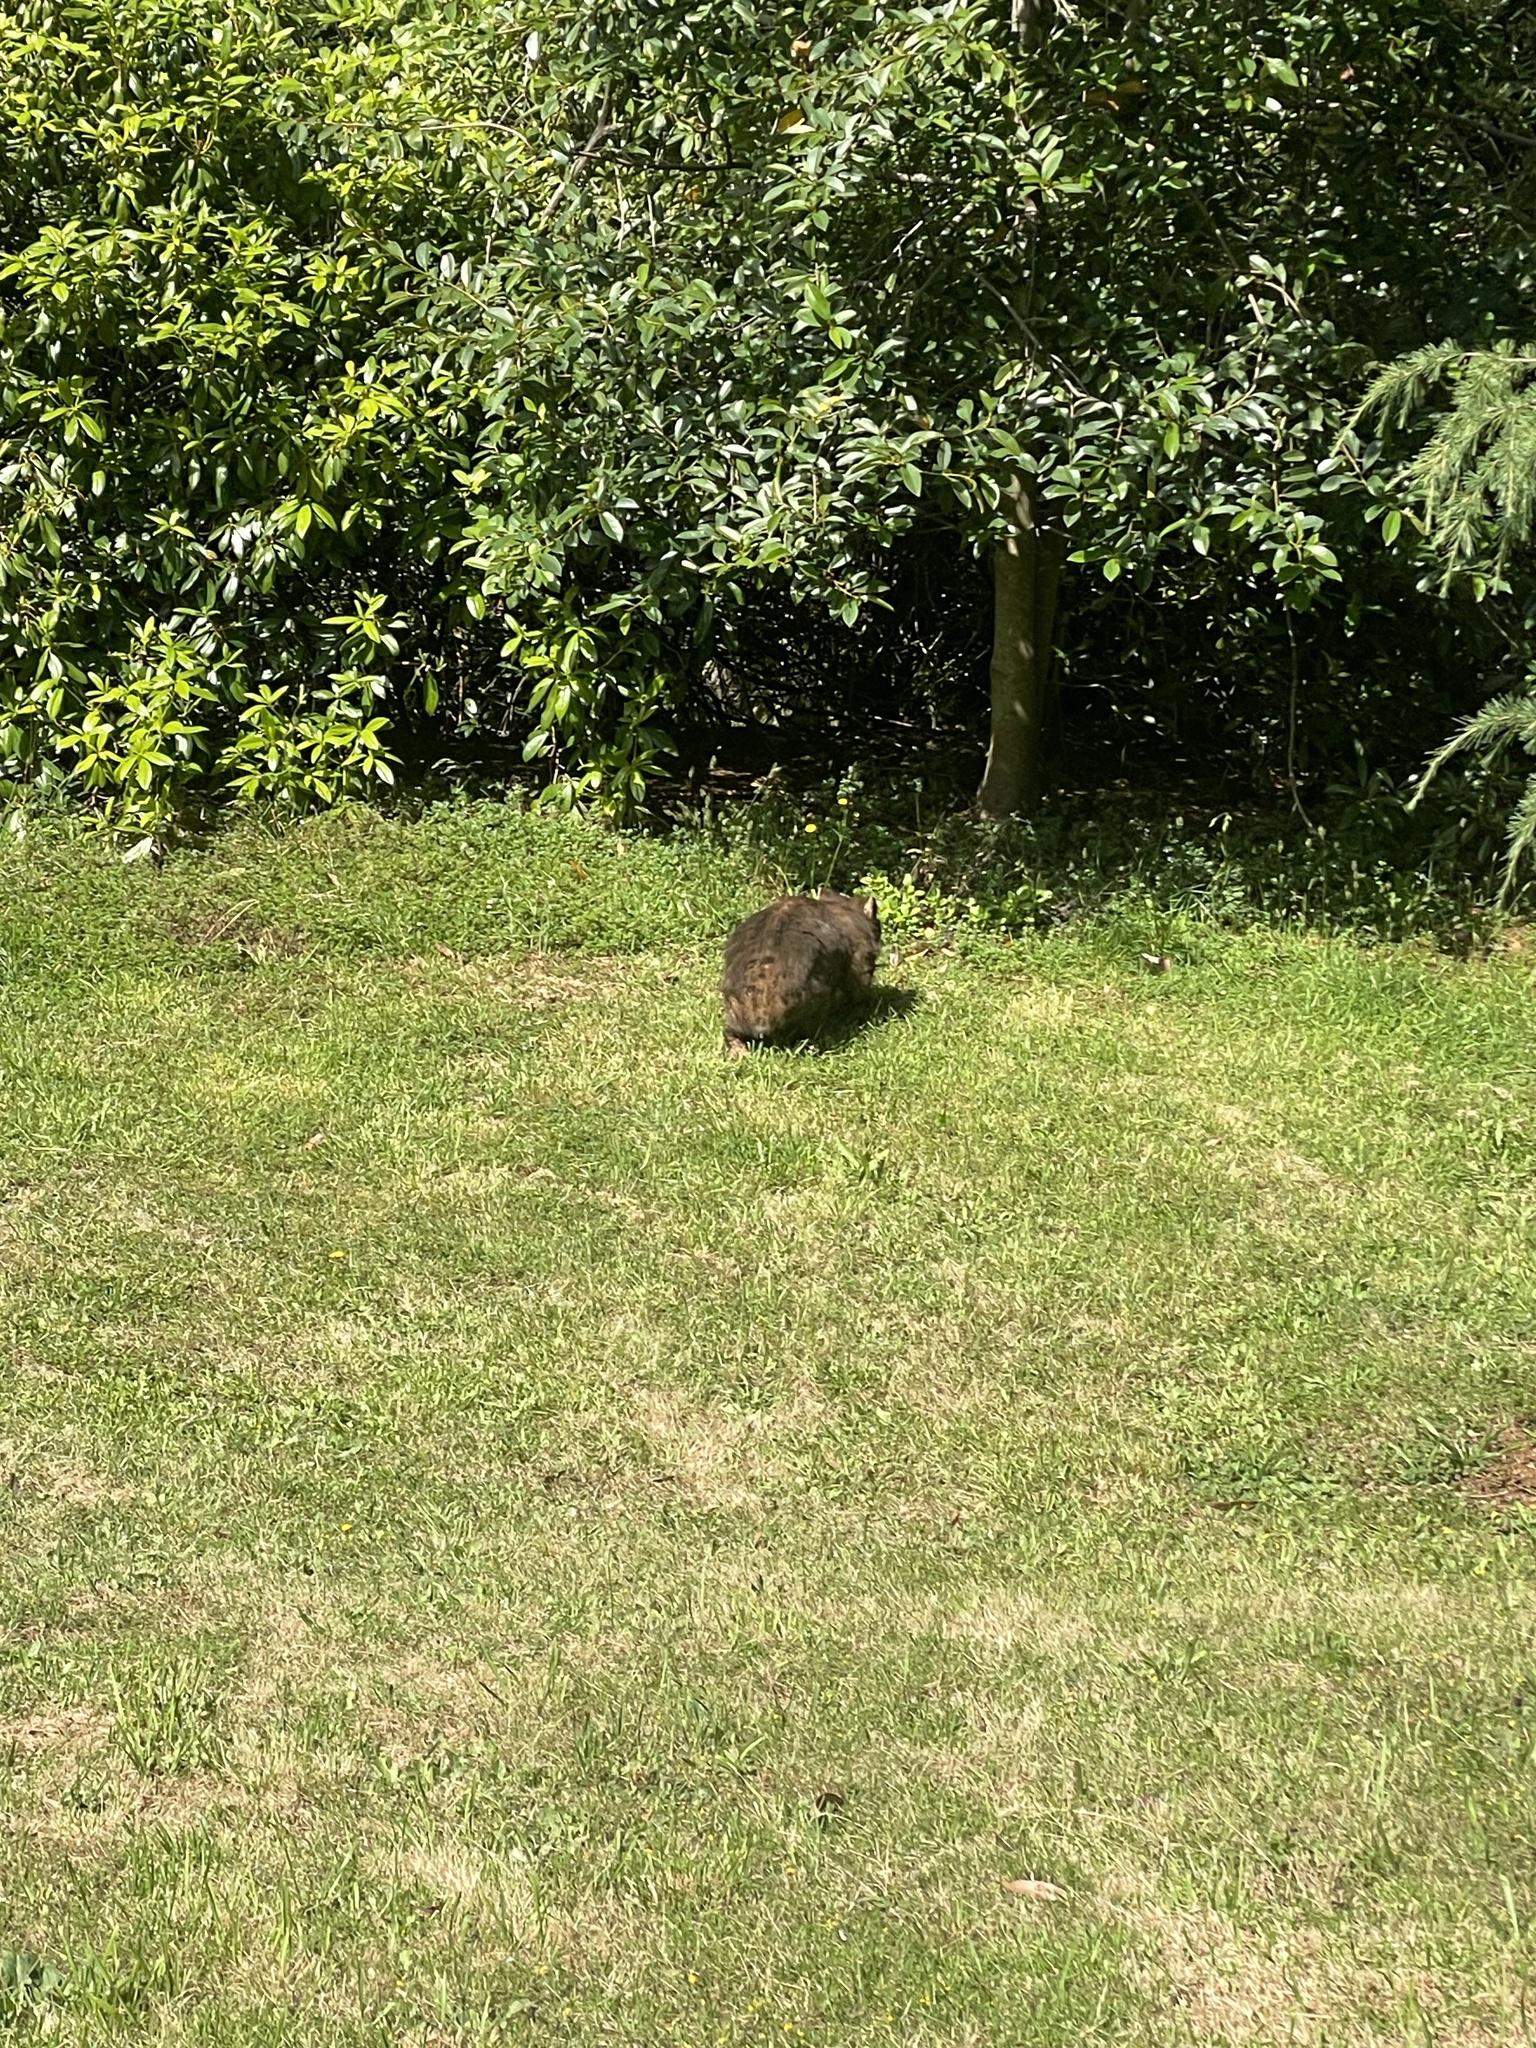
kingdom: Animalia
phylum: Chordata
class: Mammalia
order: Diprotodontia
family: Vombatidae
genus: Vombatus
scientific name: Vombatus ursinus
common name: Common wombat
